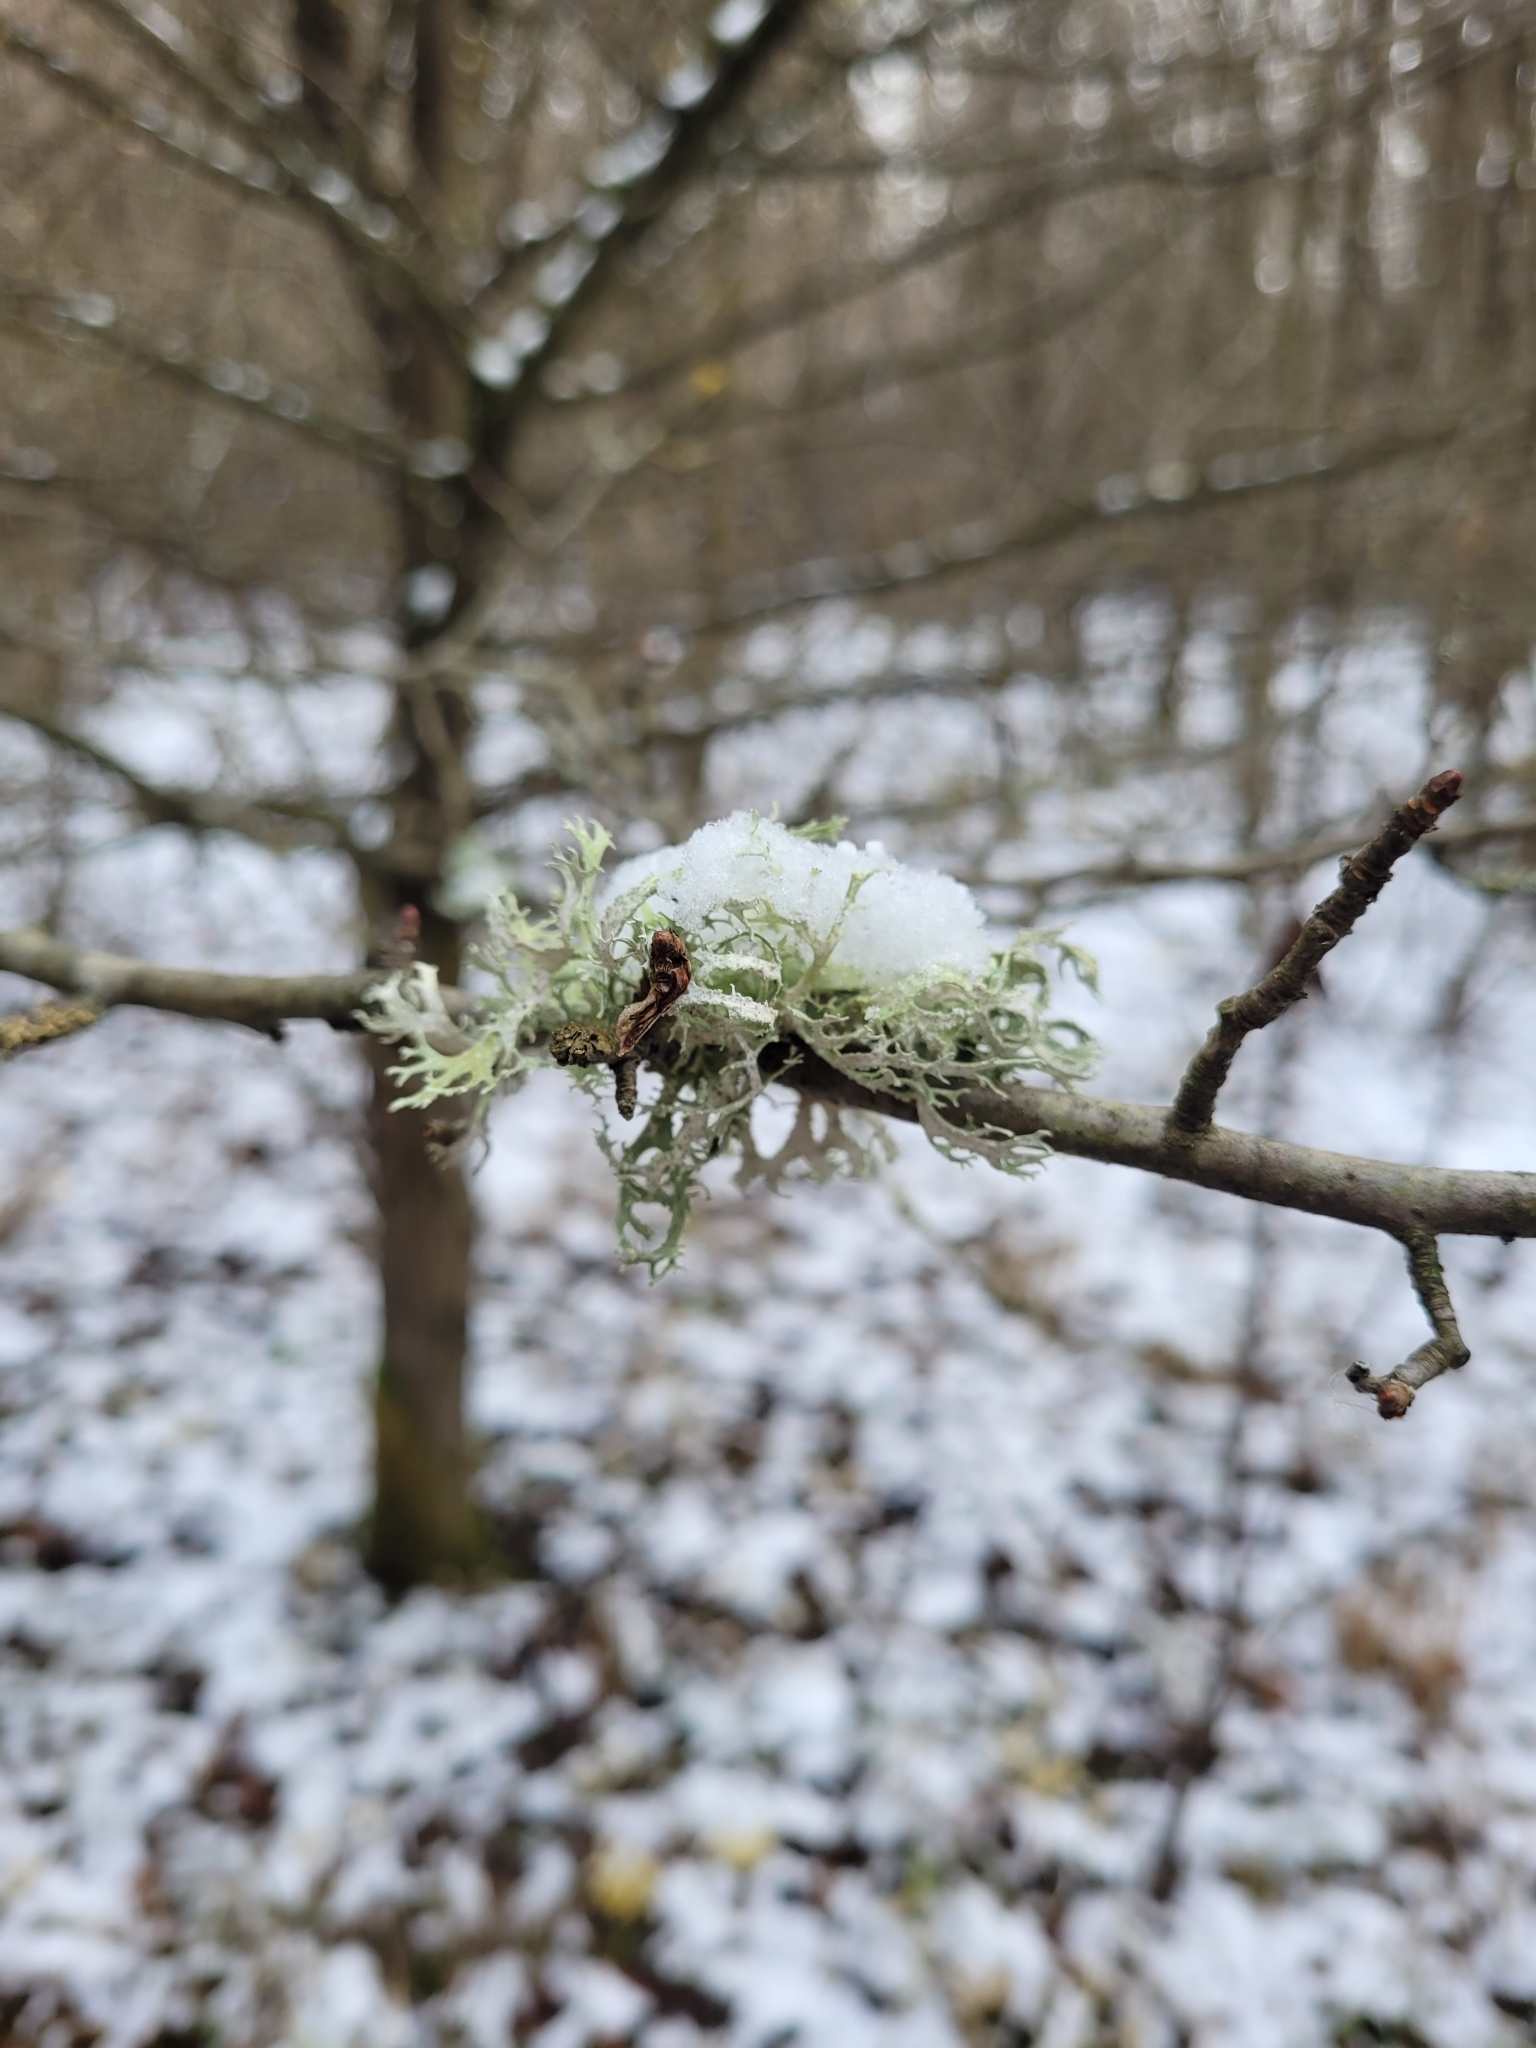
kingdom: Fungi
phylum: Ascomycota
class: Lecanoromycetes
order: Lecanorales
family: Parmeliaceae
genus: Evernia
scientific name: Evernia prunastri
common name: Oak moss
